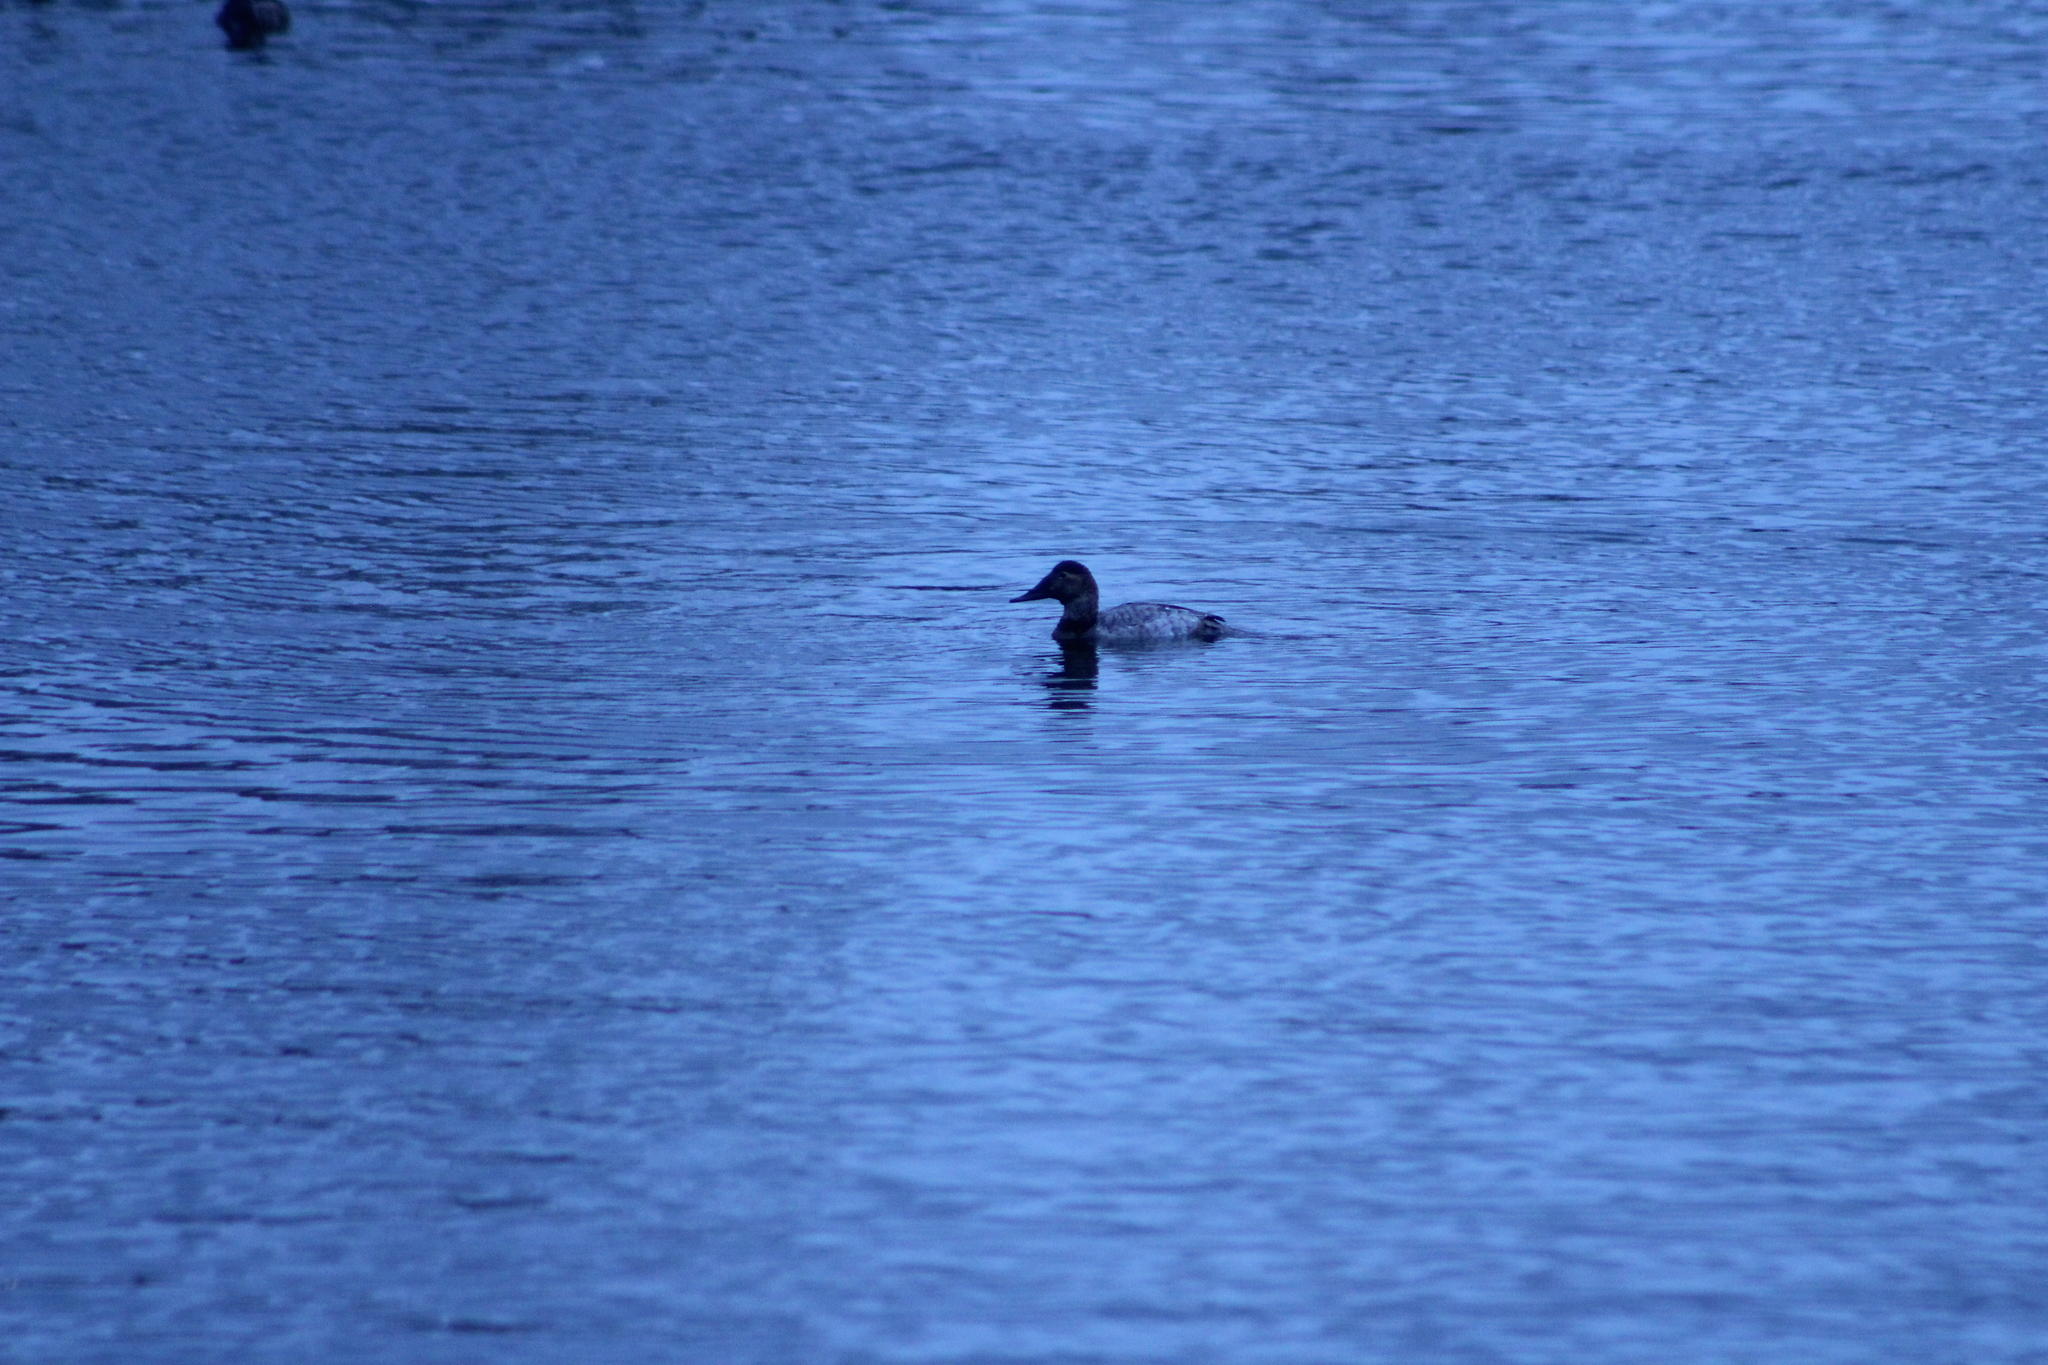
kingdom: Animalia
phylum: Chordata
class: Aves
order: Anseriformes
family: Anatidae
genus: Aythya
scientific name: Aythya valisineria
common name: Canvasback
